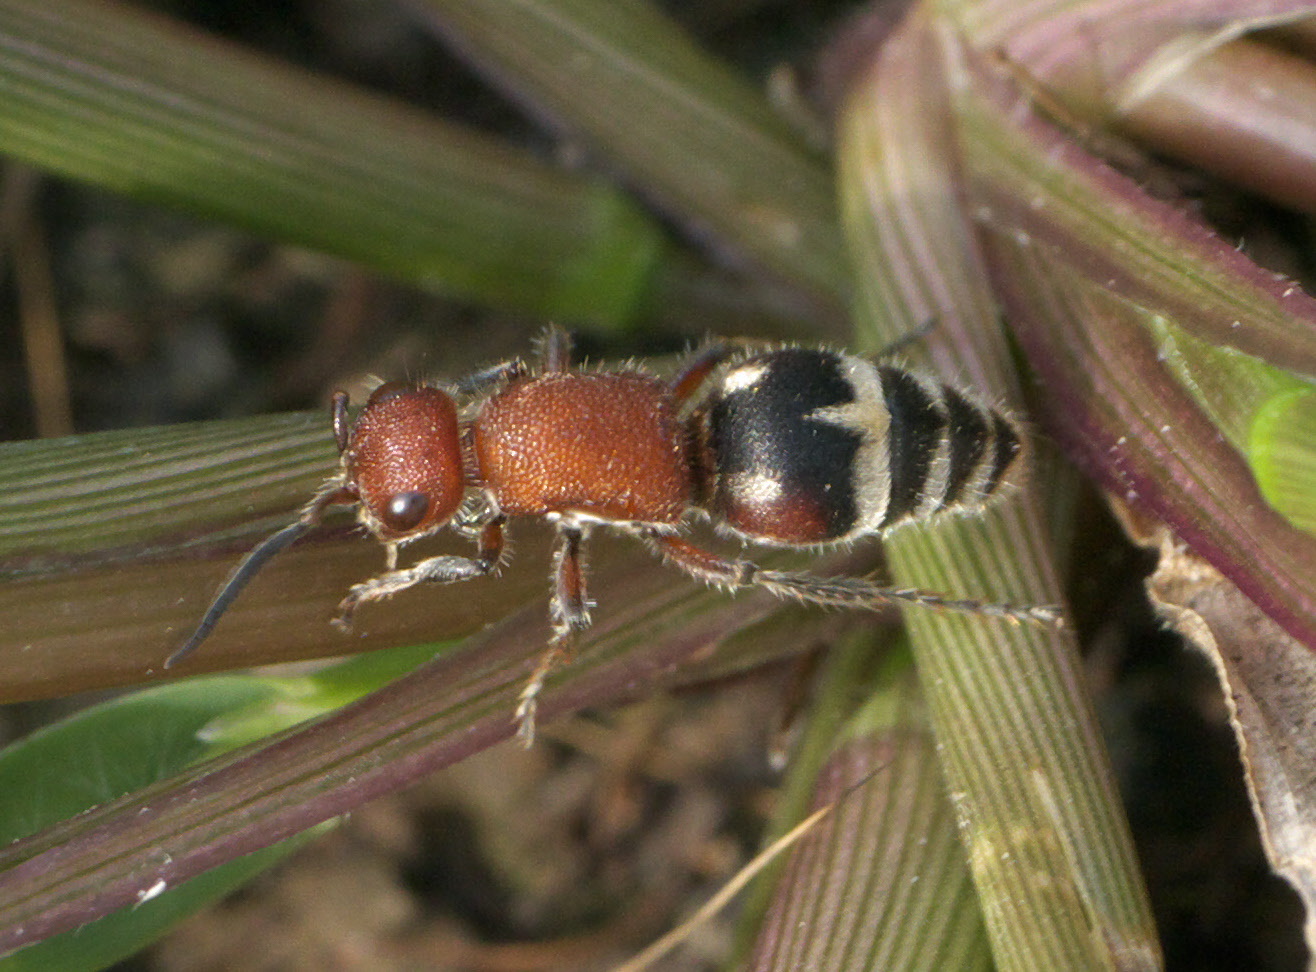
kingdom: Animalia
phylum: Arthropoda
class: Insecta
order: Hymenoptera
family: Mutillidae
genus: Timulla
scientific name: Timulla
